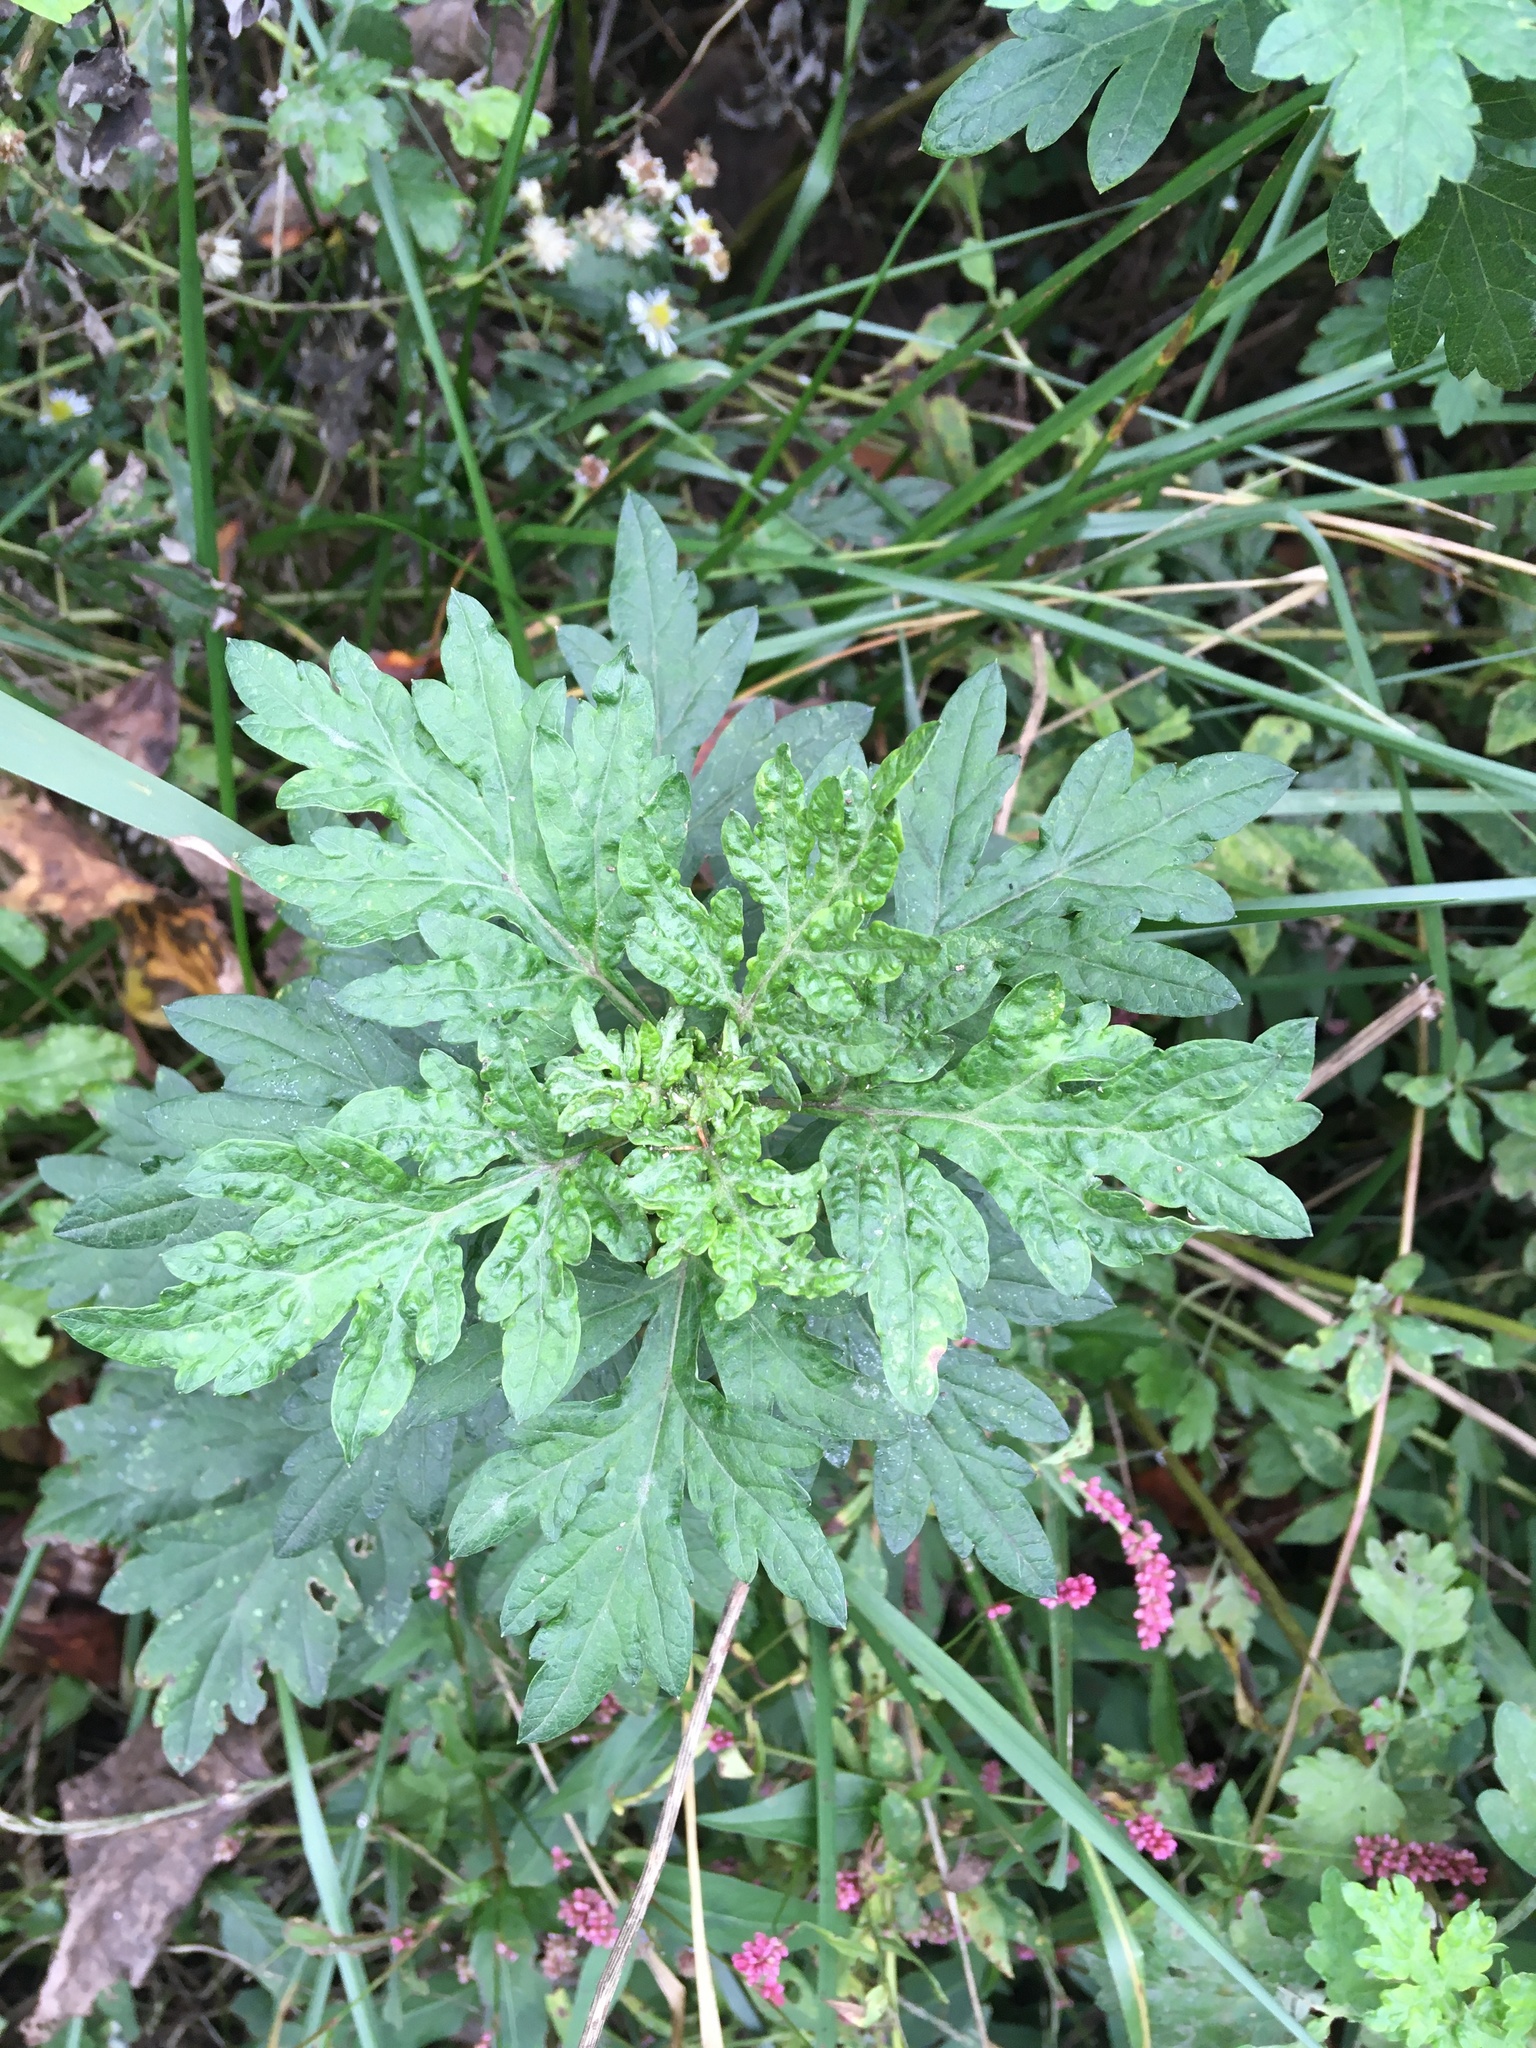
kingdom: Plantae
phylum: Tracheophyta
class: Magnoliopsida
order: Asterales
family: Asteraceae
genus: Artemisia
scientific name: Artemisia vulgaris
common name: Mugwort
